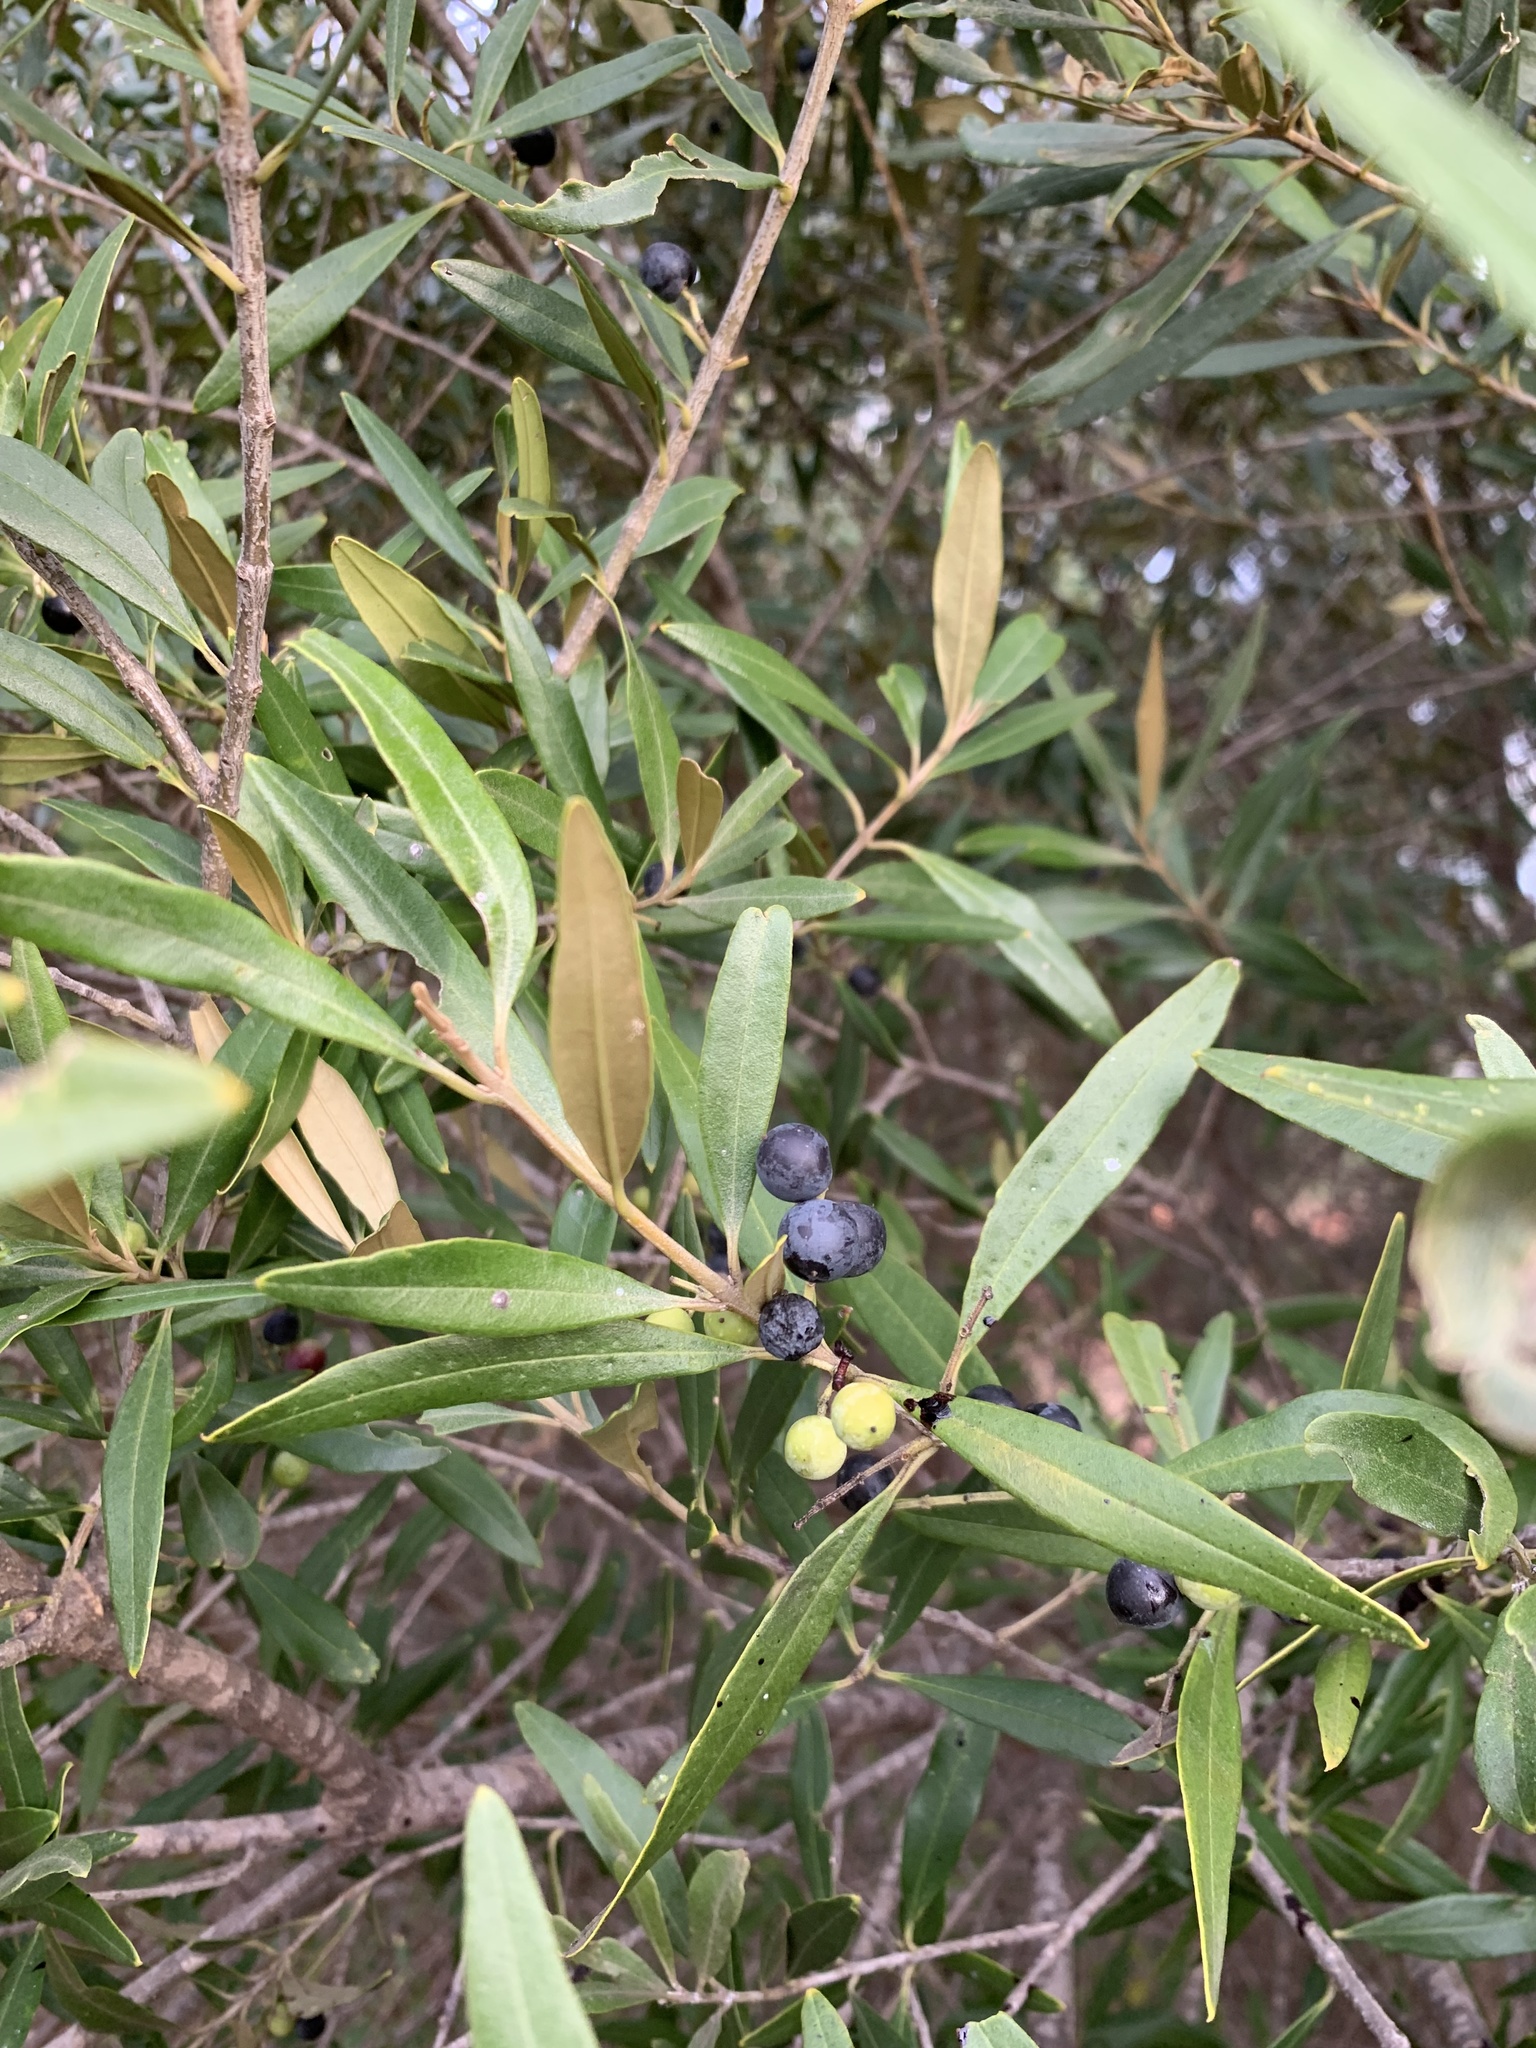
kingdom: Plantae
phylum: Tracheophyta
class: Magnoliopsida
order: Lamiales
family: Oleaceae
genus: Olea
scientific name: Olea europaea
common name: Olive
